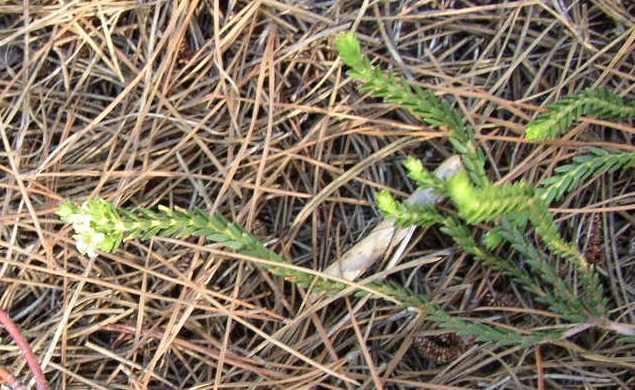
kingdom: Plantae
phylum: Tracheophyta
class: Magnoliopsida
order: Sapindales
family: Rutaceae
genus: Diosma
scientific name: Diosma oppositifolia
